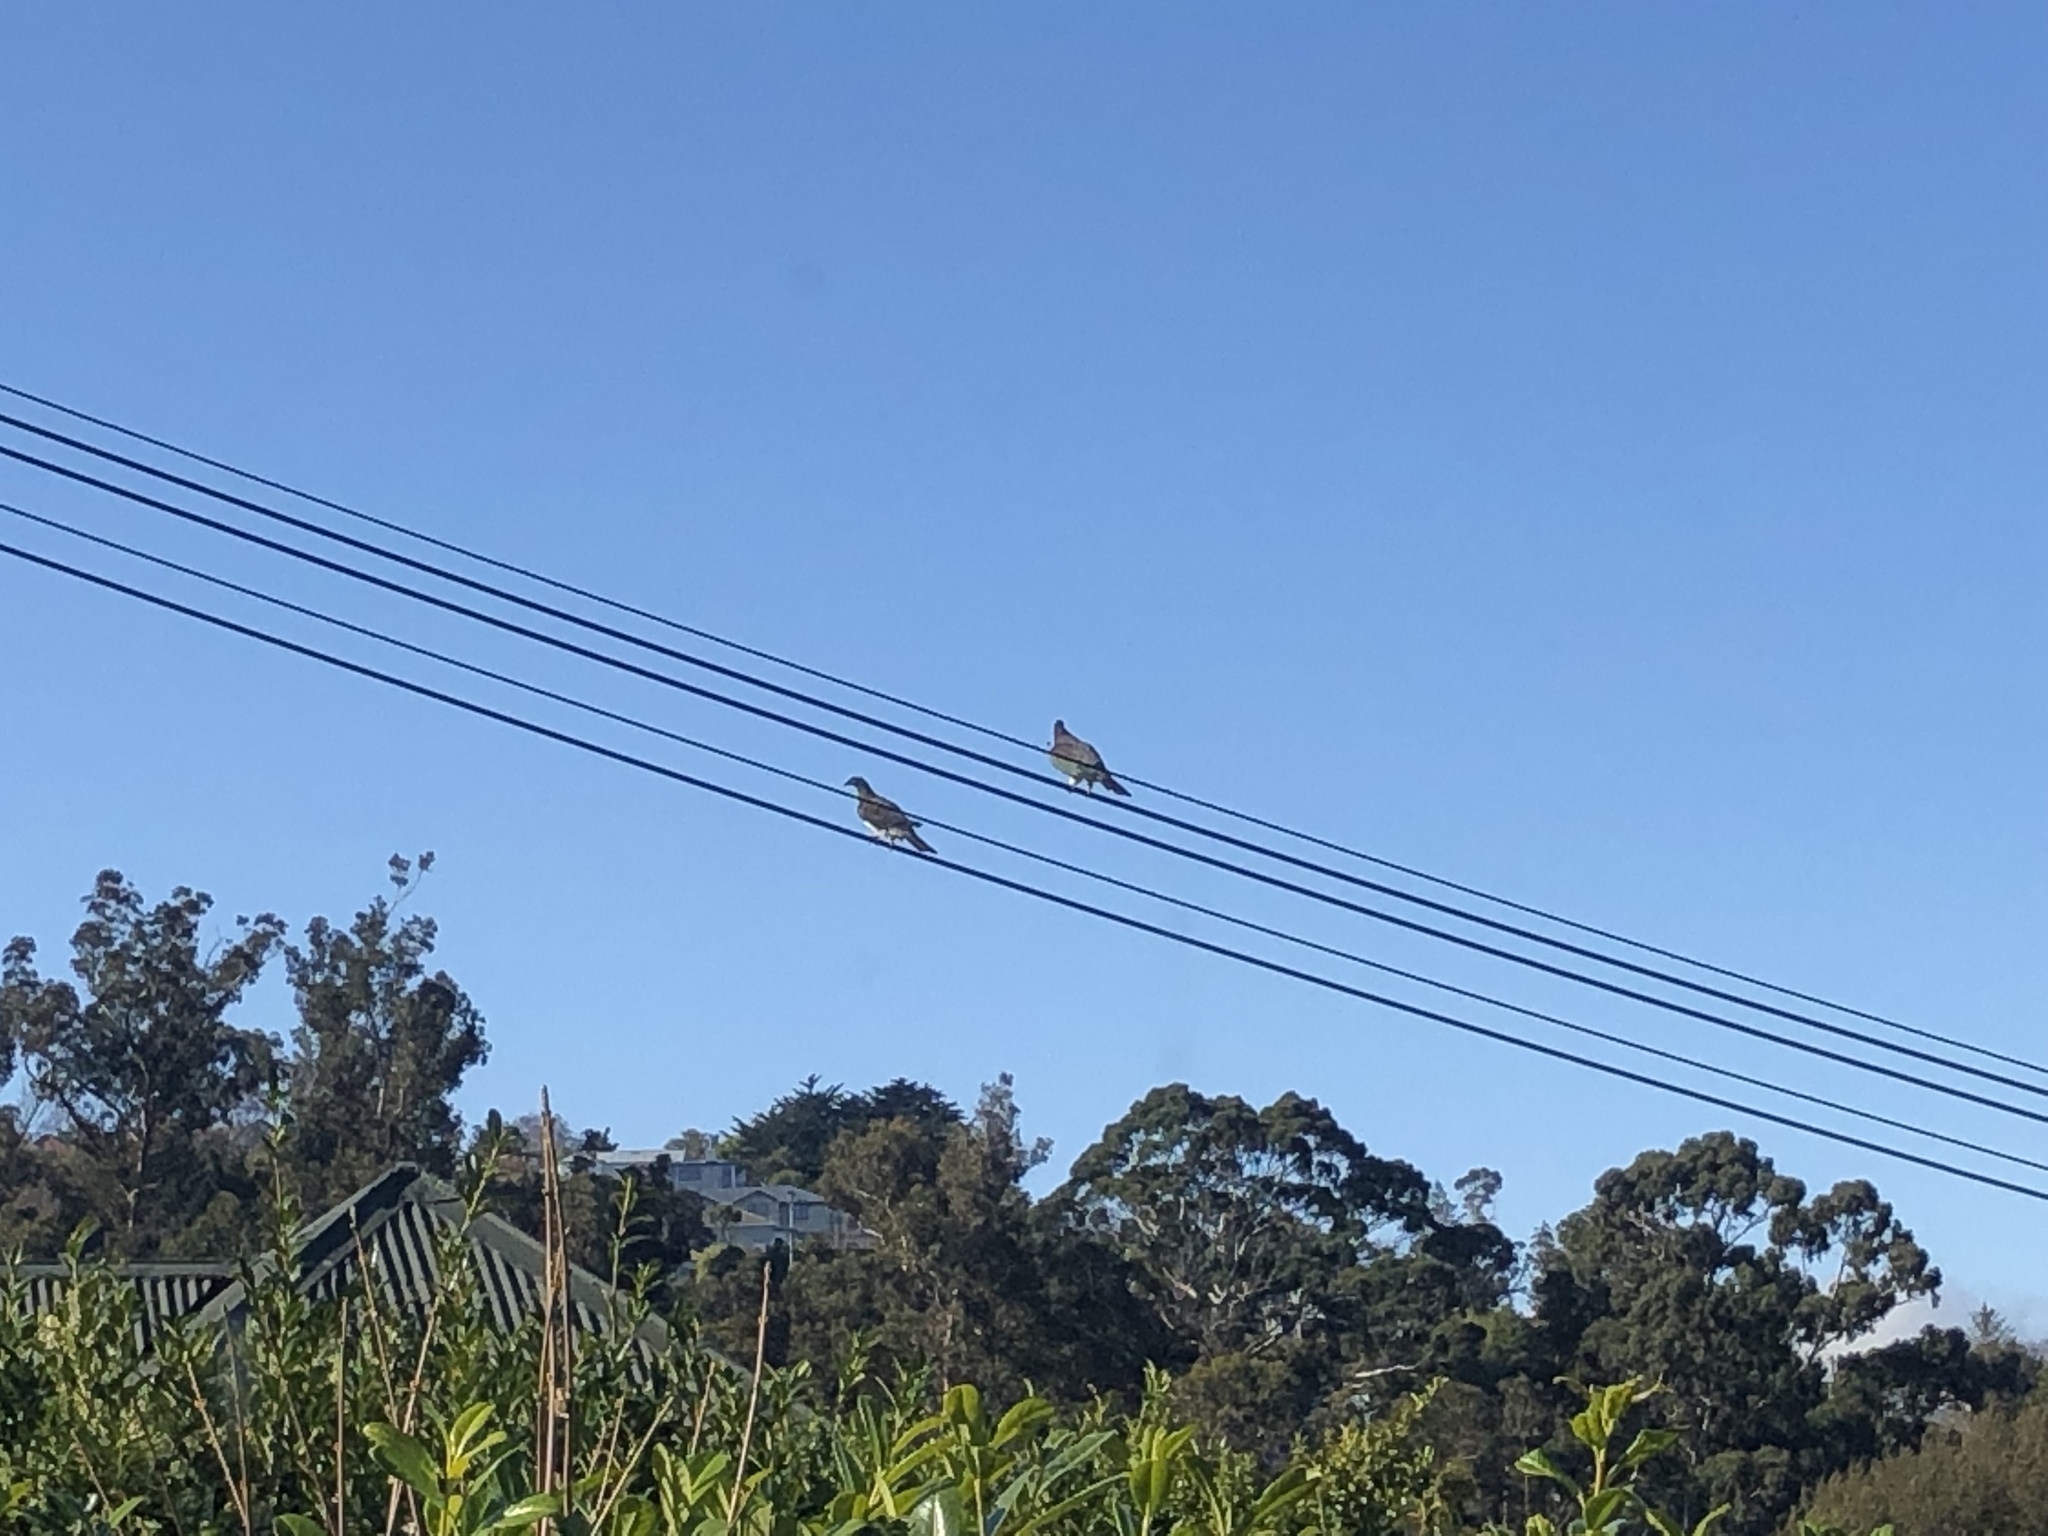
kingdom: Animalia
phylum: Chordata
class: Aves
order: Columbiformes
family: Columbidae
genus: Hemiphaga
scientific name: Hemiphaga novaeseelandiae
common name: New zealand pigeon
